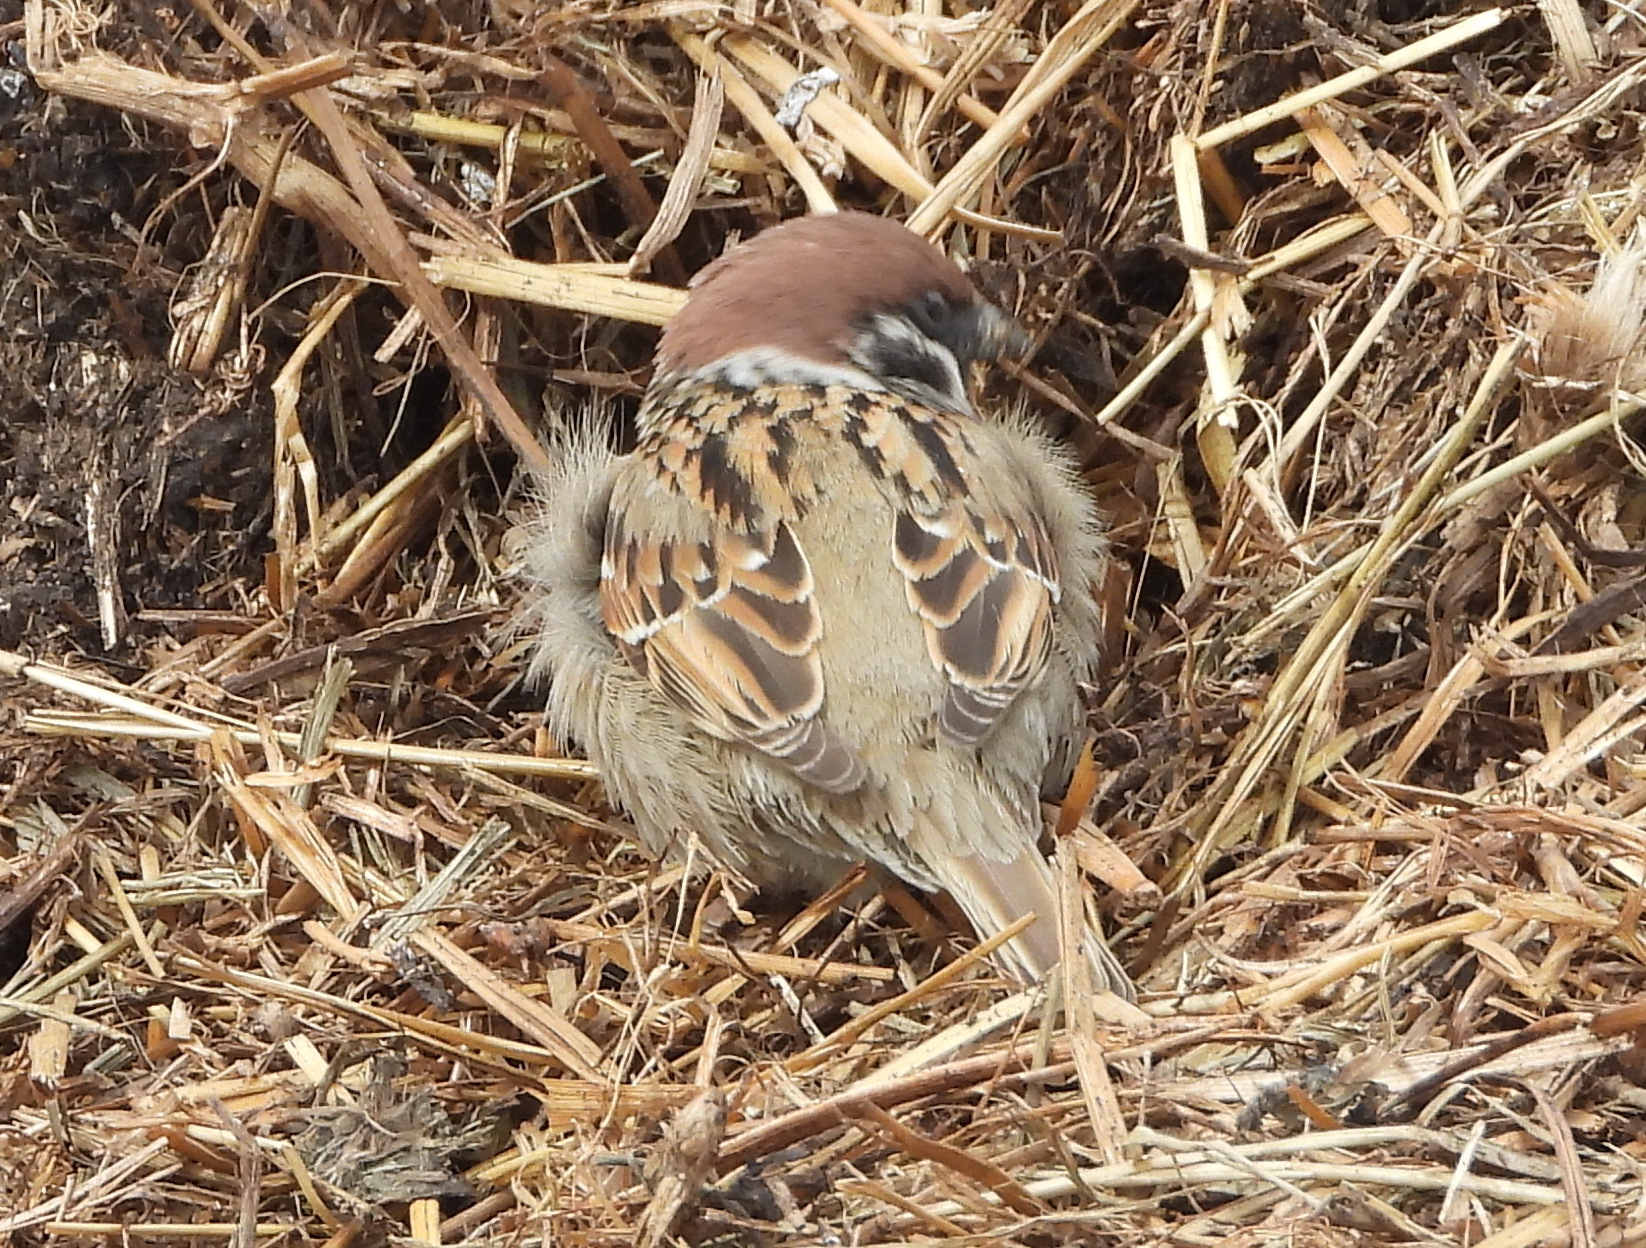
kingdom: Animalia
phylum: Chordata
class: Aves
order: Passeriformes
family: Passeridae
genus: Passer
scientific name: Passer montanus
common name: Eurasian tree sparrow
